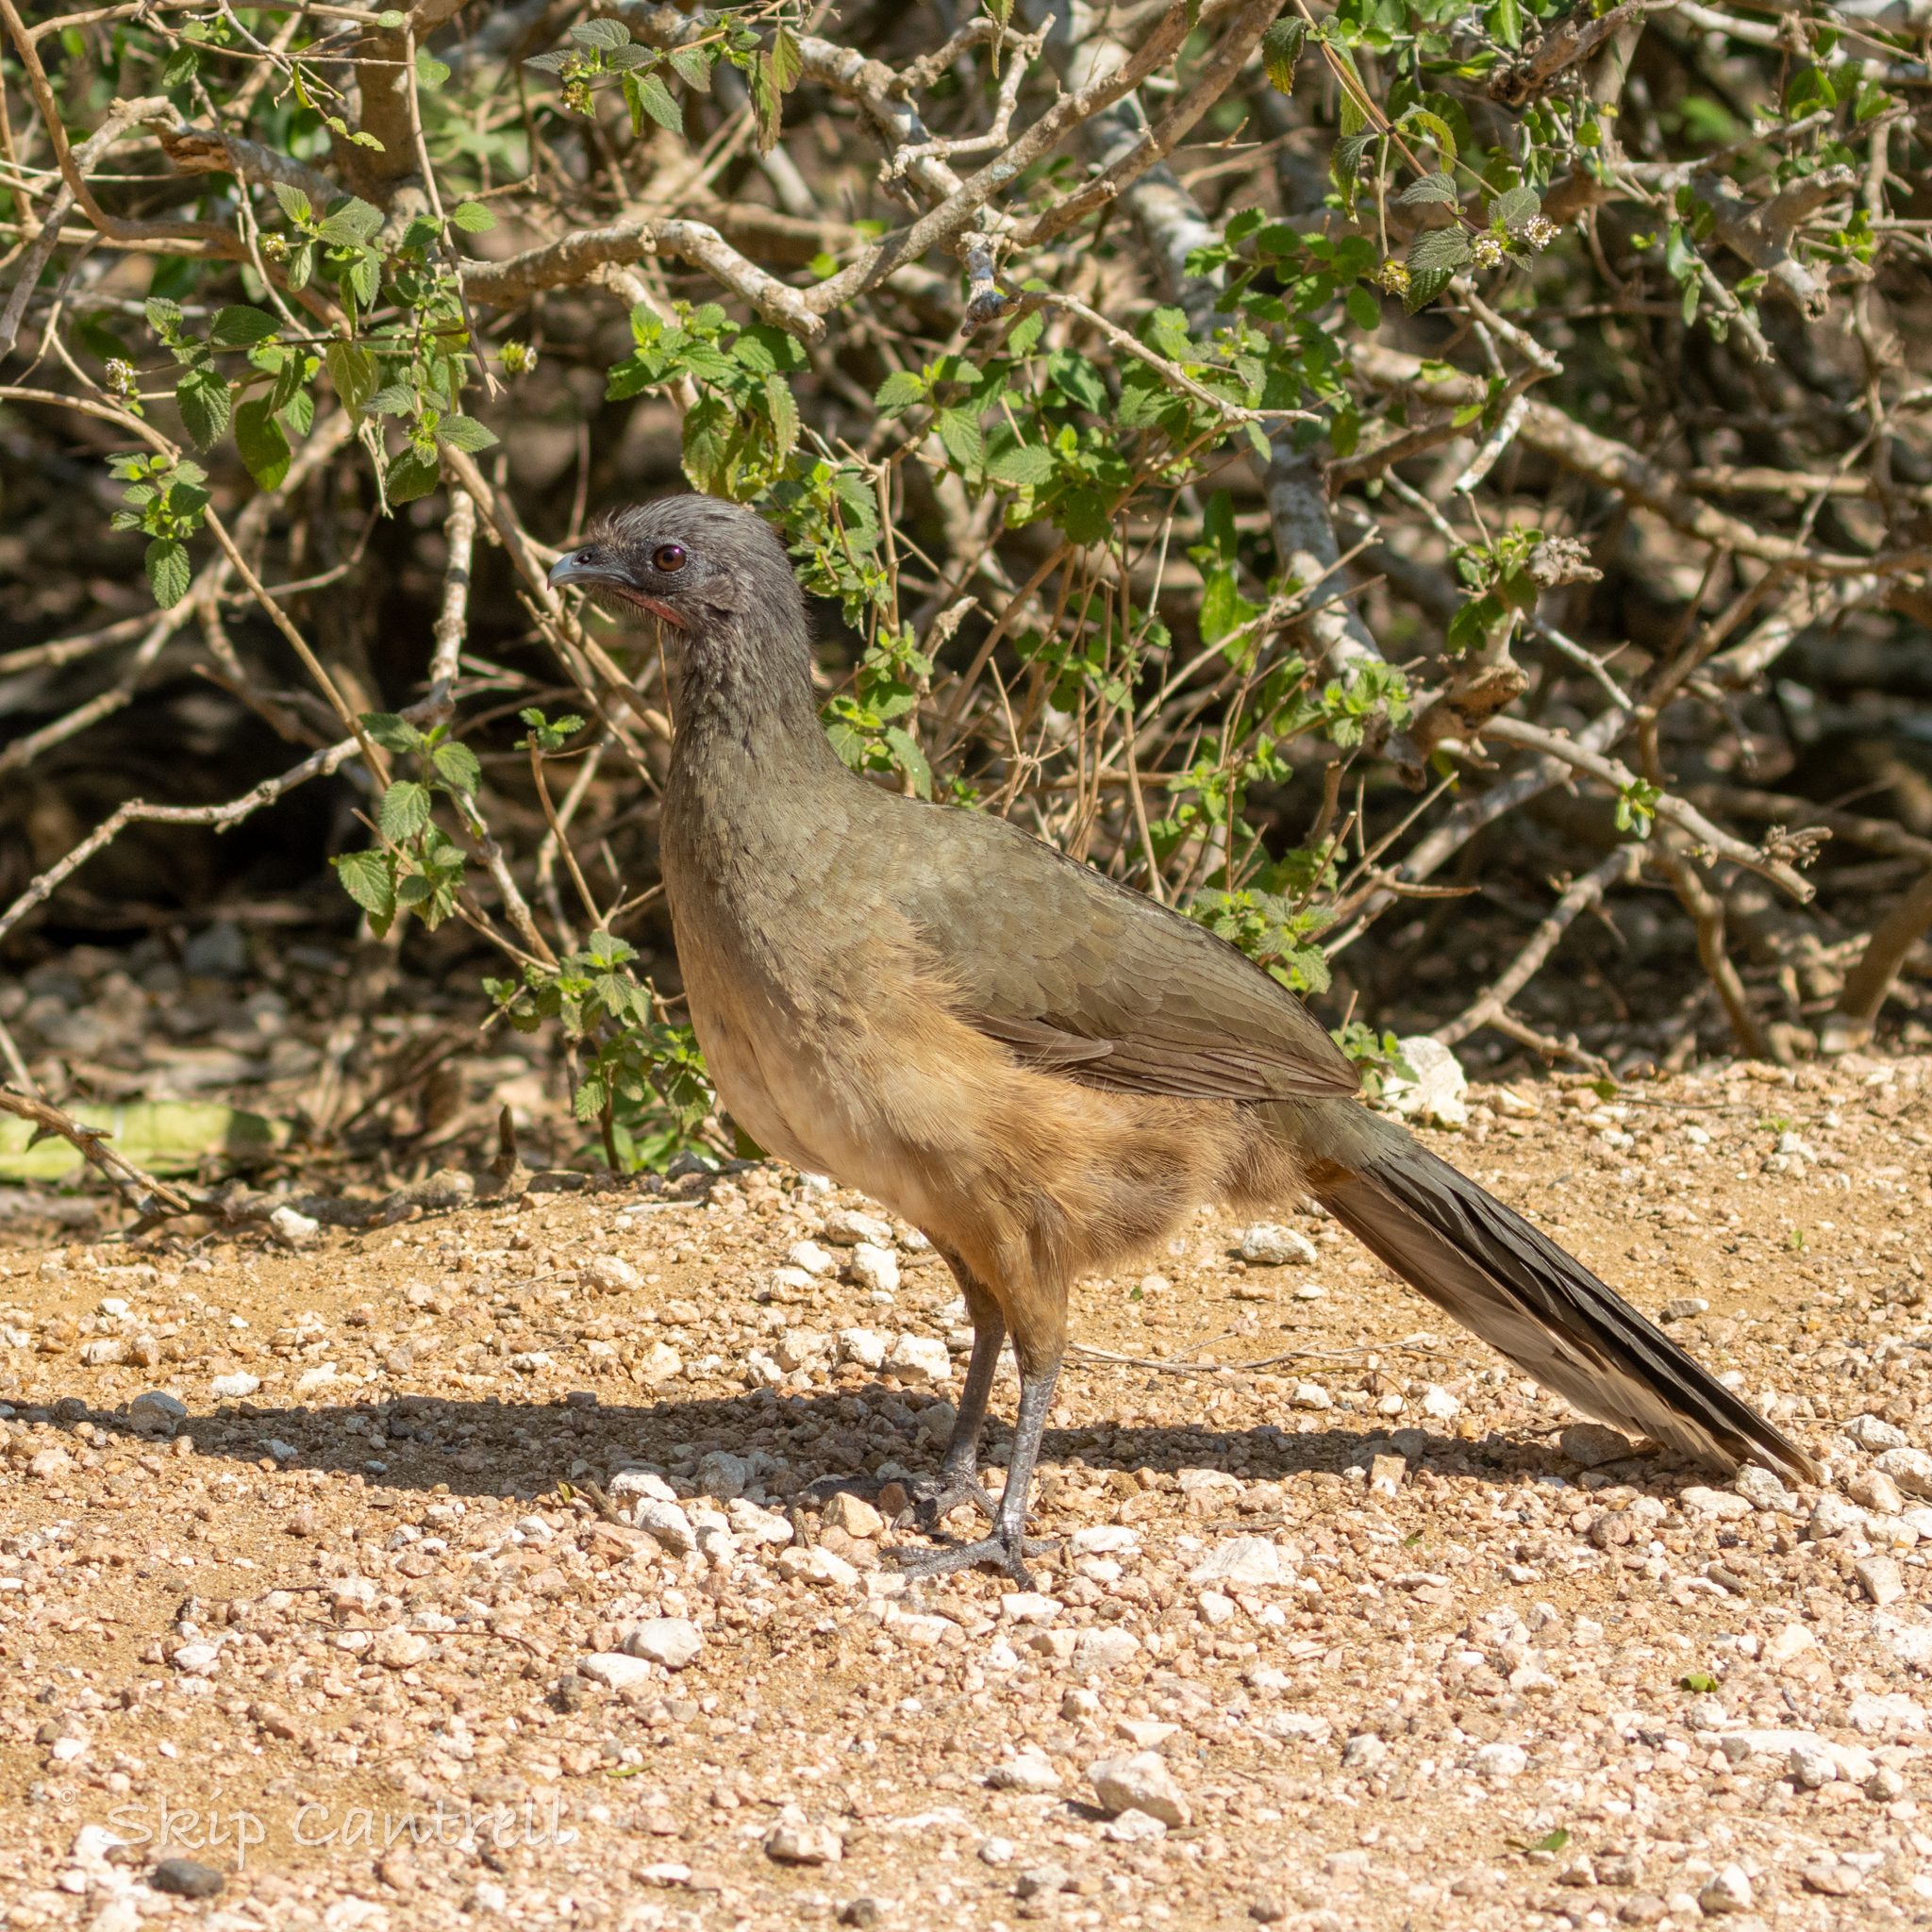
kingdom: Animalia
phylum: Chordata
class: Aves
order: Galliformes
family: Cracidae
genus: Ortalis
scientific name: Ortalis vetula
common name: Plain chachalaca
